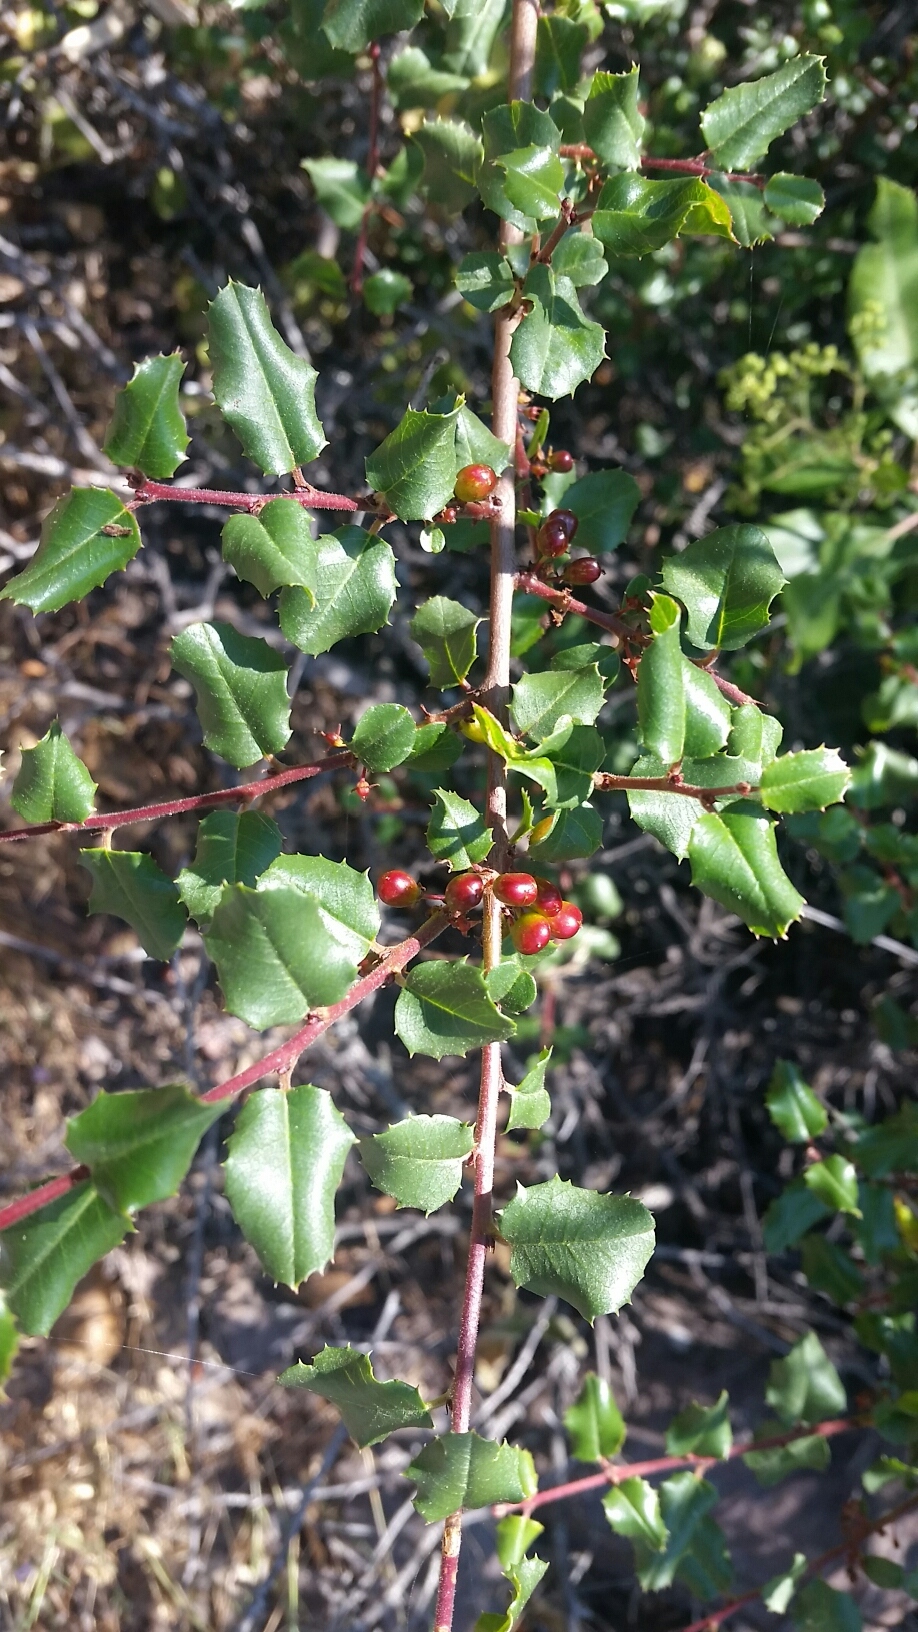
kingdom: Plantae
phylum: Tracheophyta
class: Magnoliopsida
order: Rosales
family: Rhamnaceae
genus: Endotropis
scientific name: Endotropis crocea
